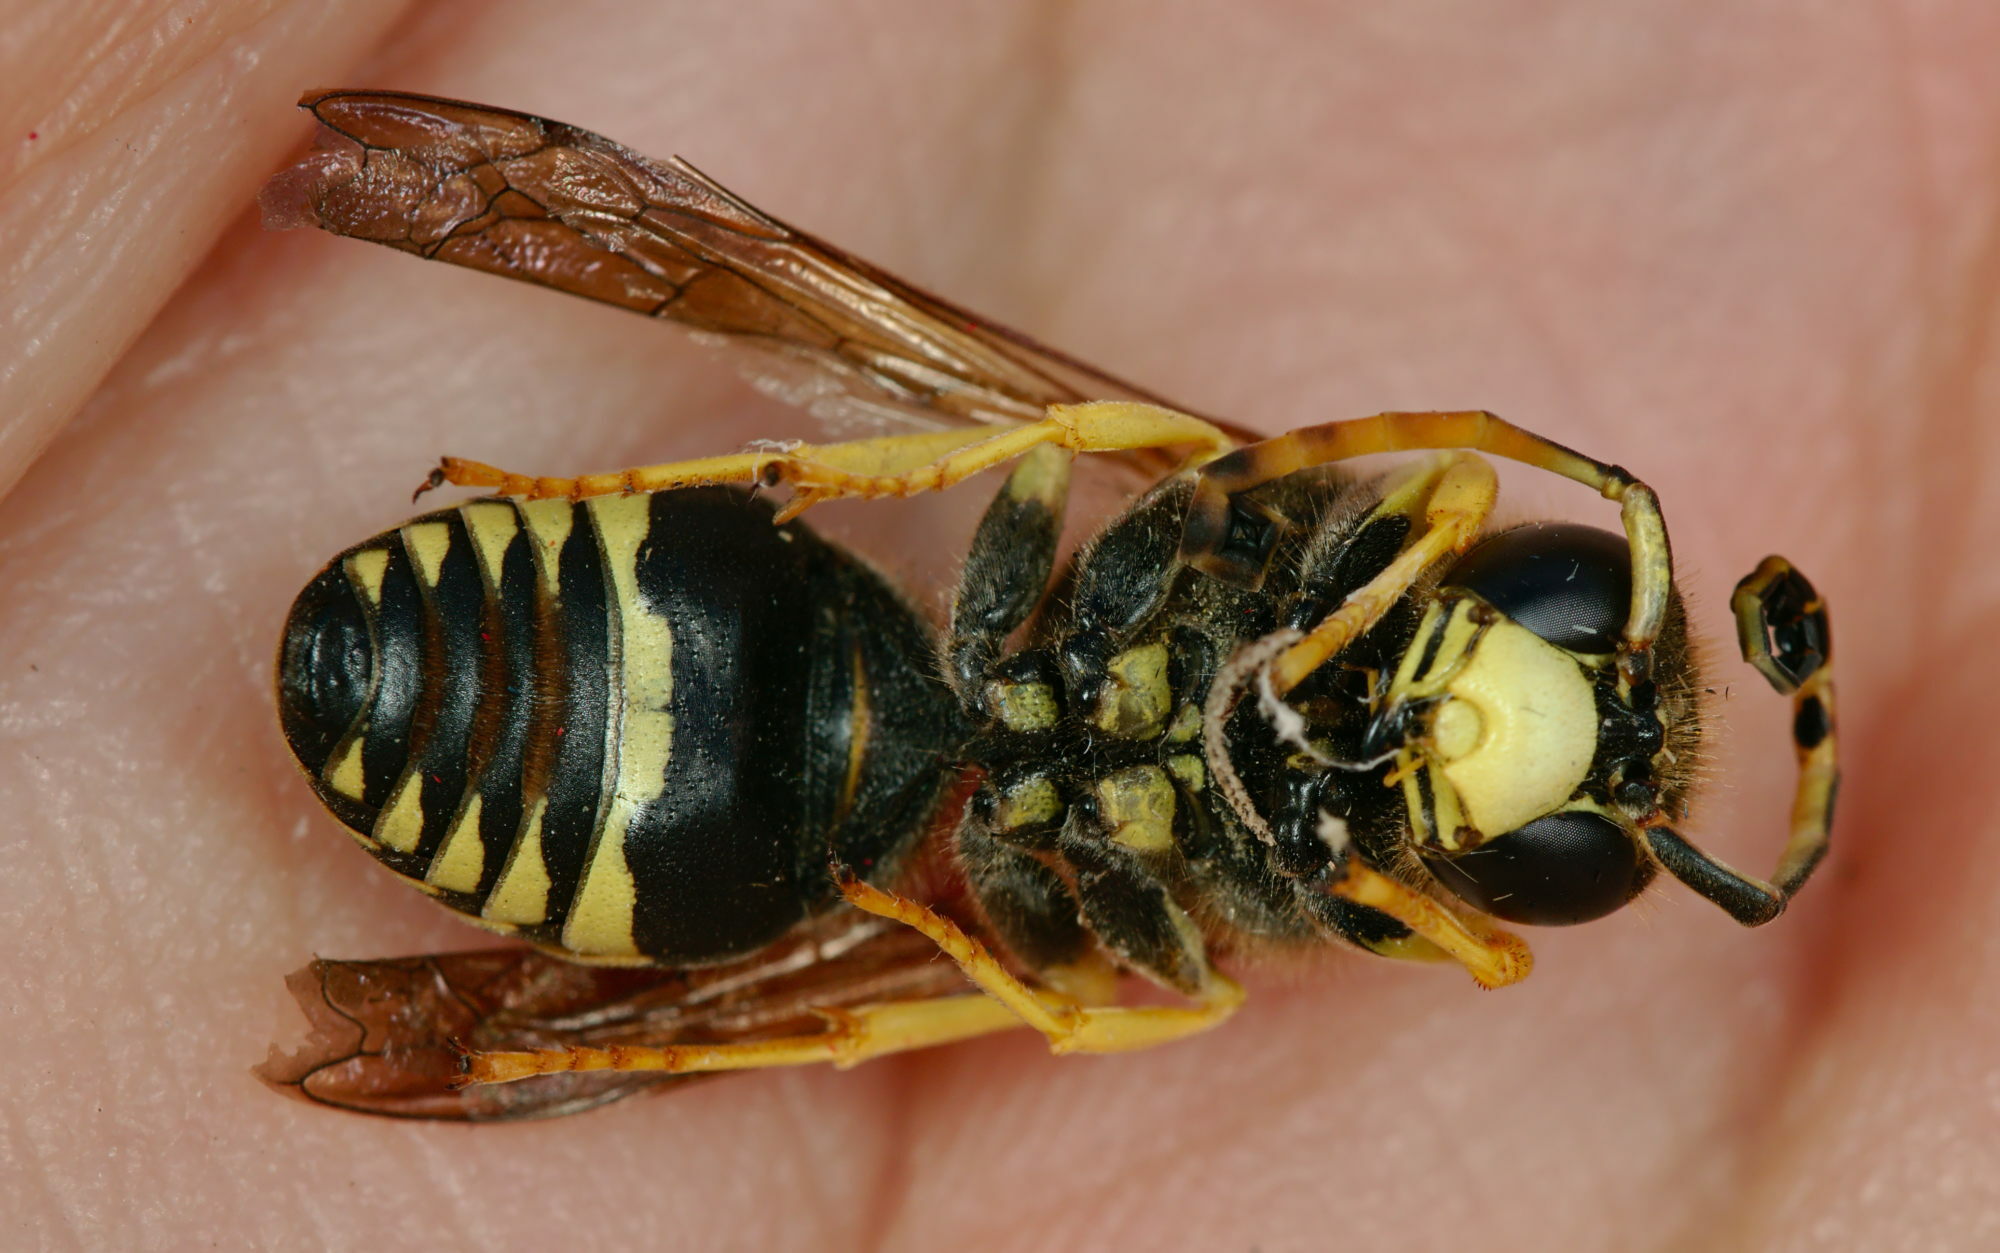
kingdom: Animalia
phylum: Arthropoda
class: Insecta
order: Hymenoptera
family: Eumenidae
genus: Paragymnomerus
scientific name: Paragymnomerus spiricornis
